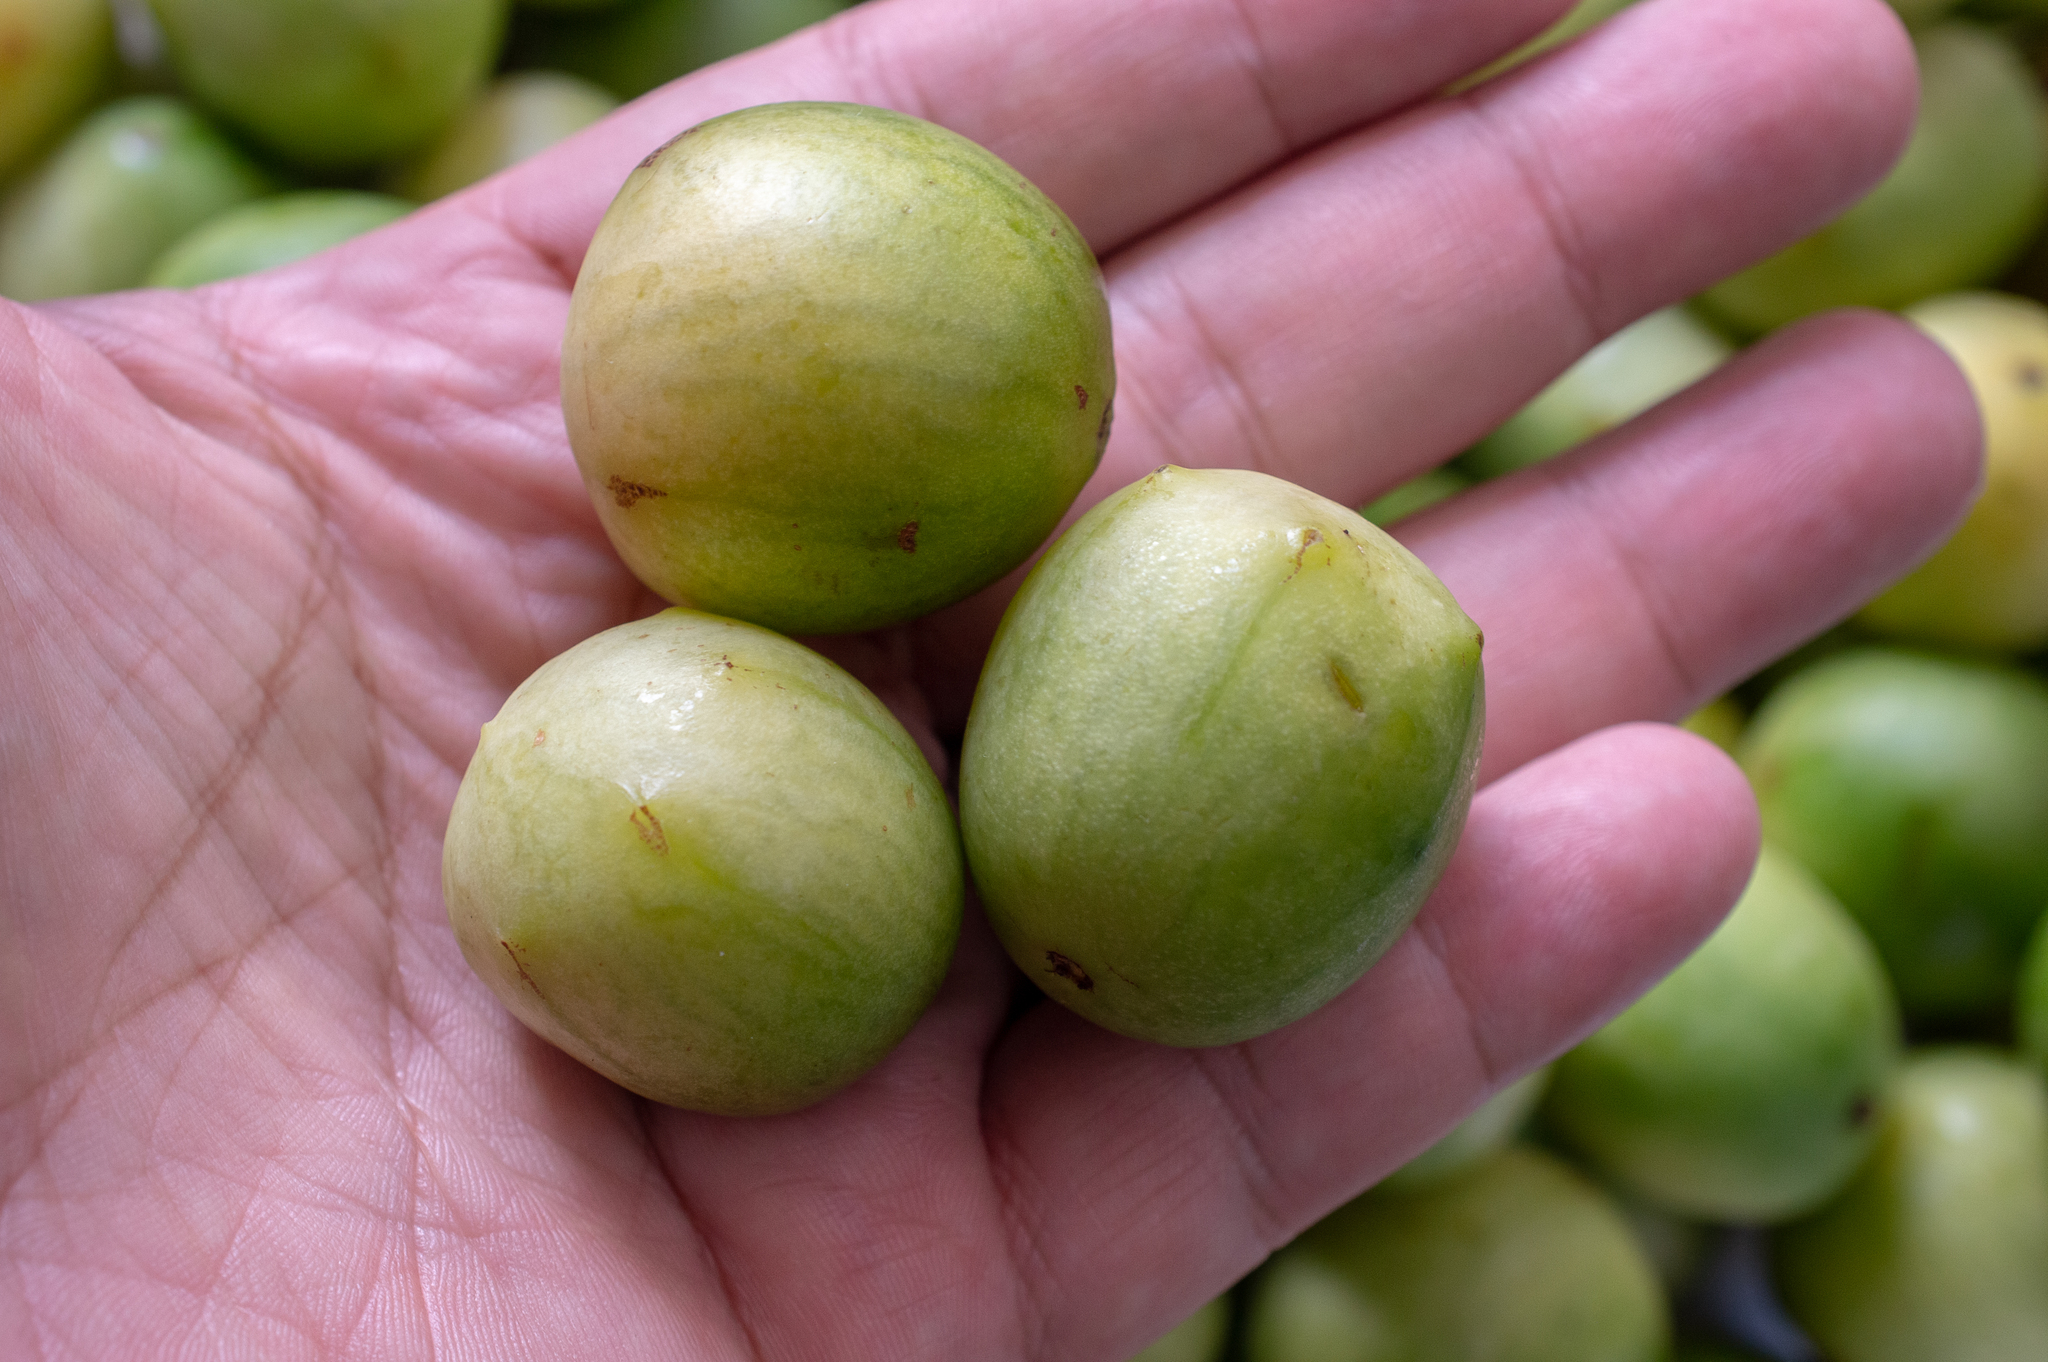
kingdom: Plantae
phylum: Tracheophyta
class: Magnoliopsida
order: Sapindales
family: Anacardiaceae
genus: Spondias
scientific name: Spondias tuberosa
